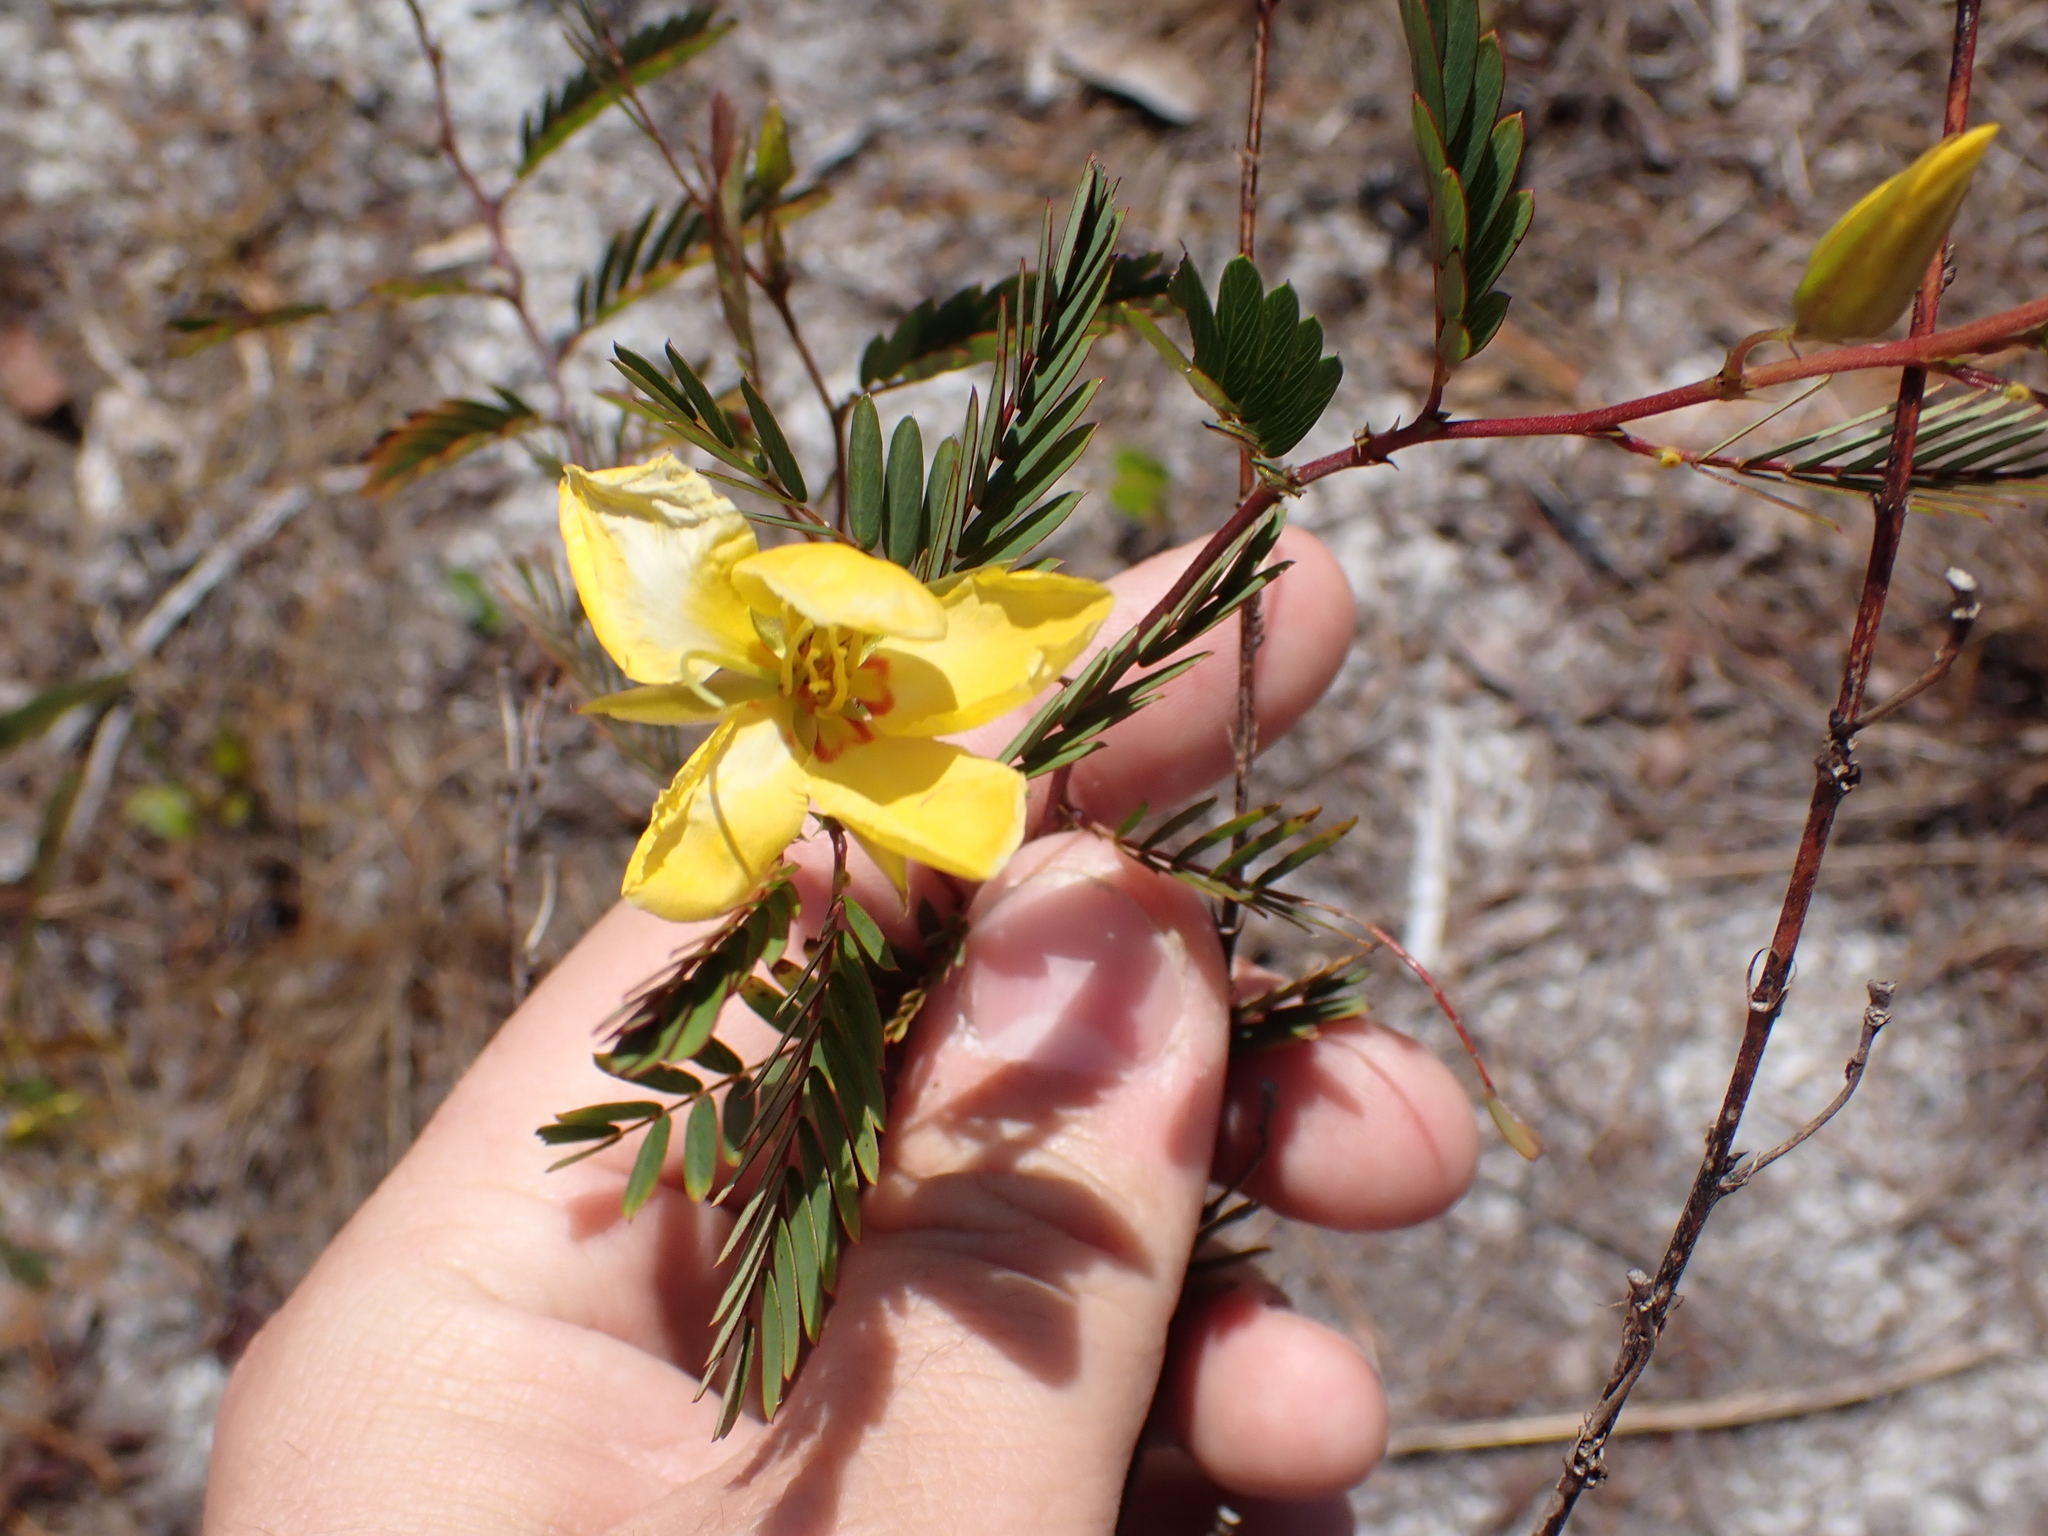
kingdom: Plantae
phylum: Tracheophyta
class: Magnoliopsida
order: Fabales
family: Fabaceae
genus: Chamaecrista
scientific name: Chamaecrista fasciculata
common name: Golden cassia
